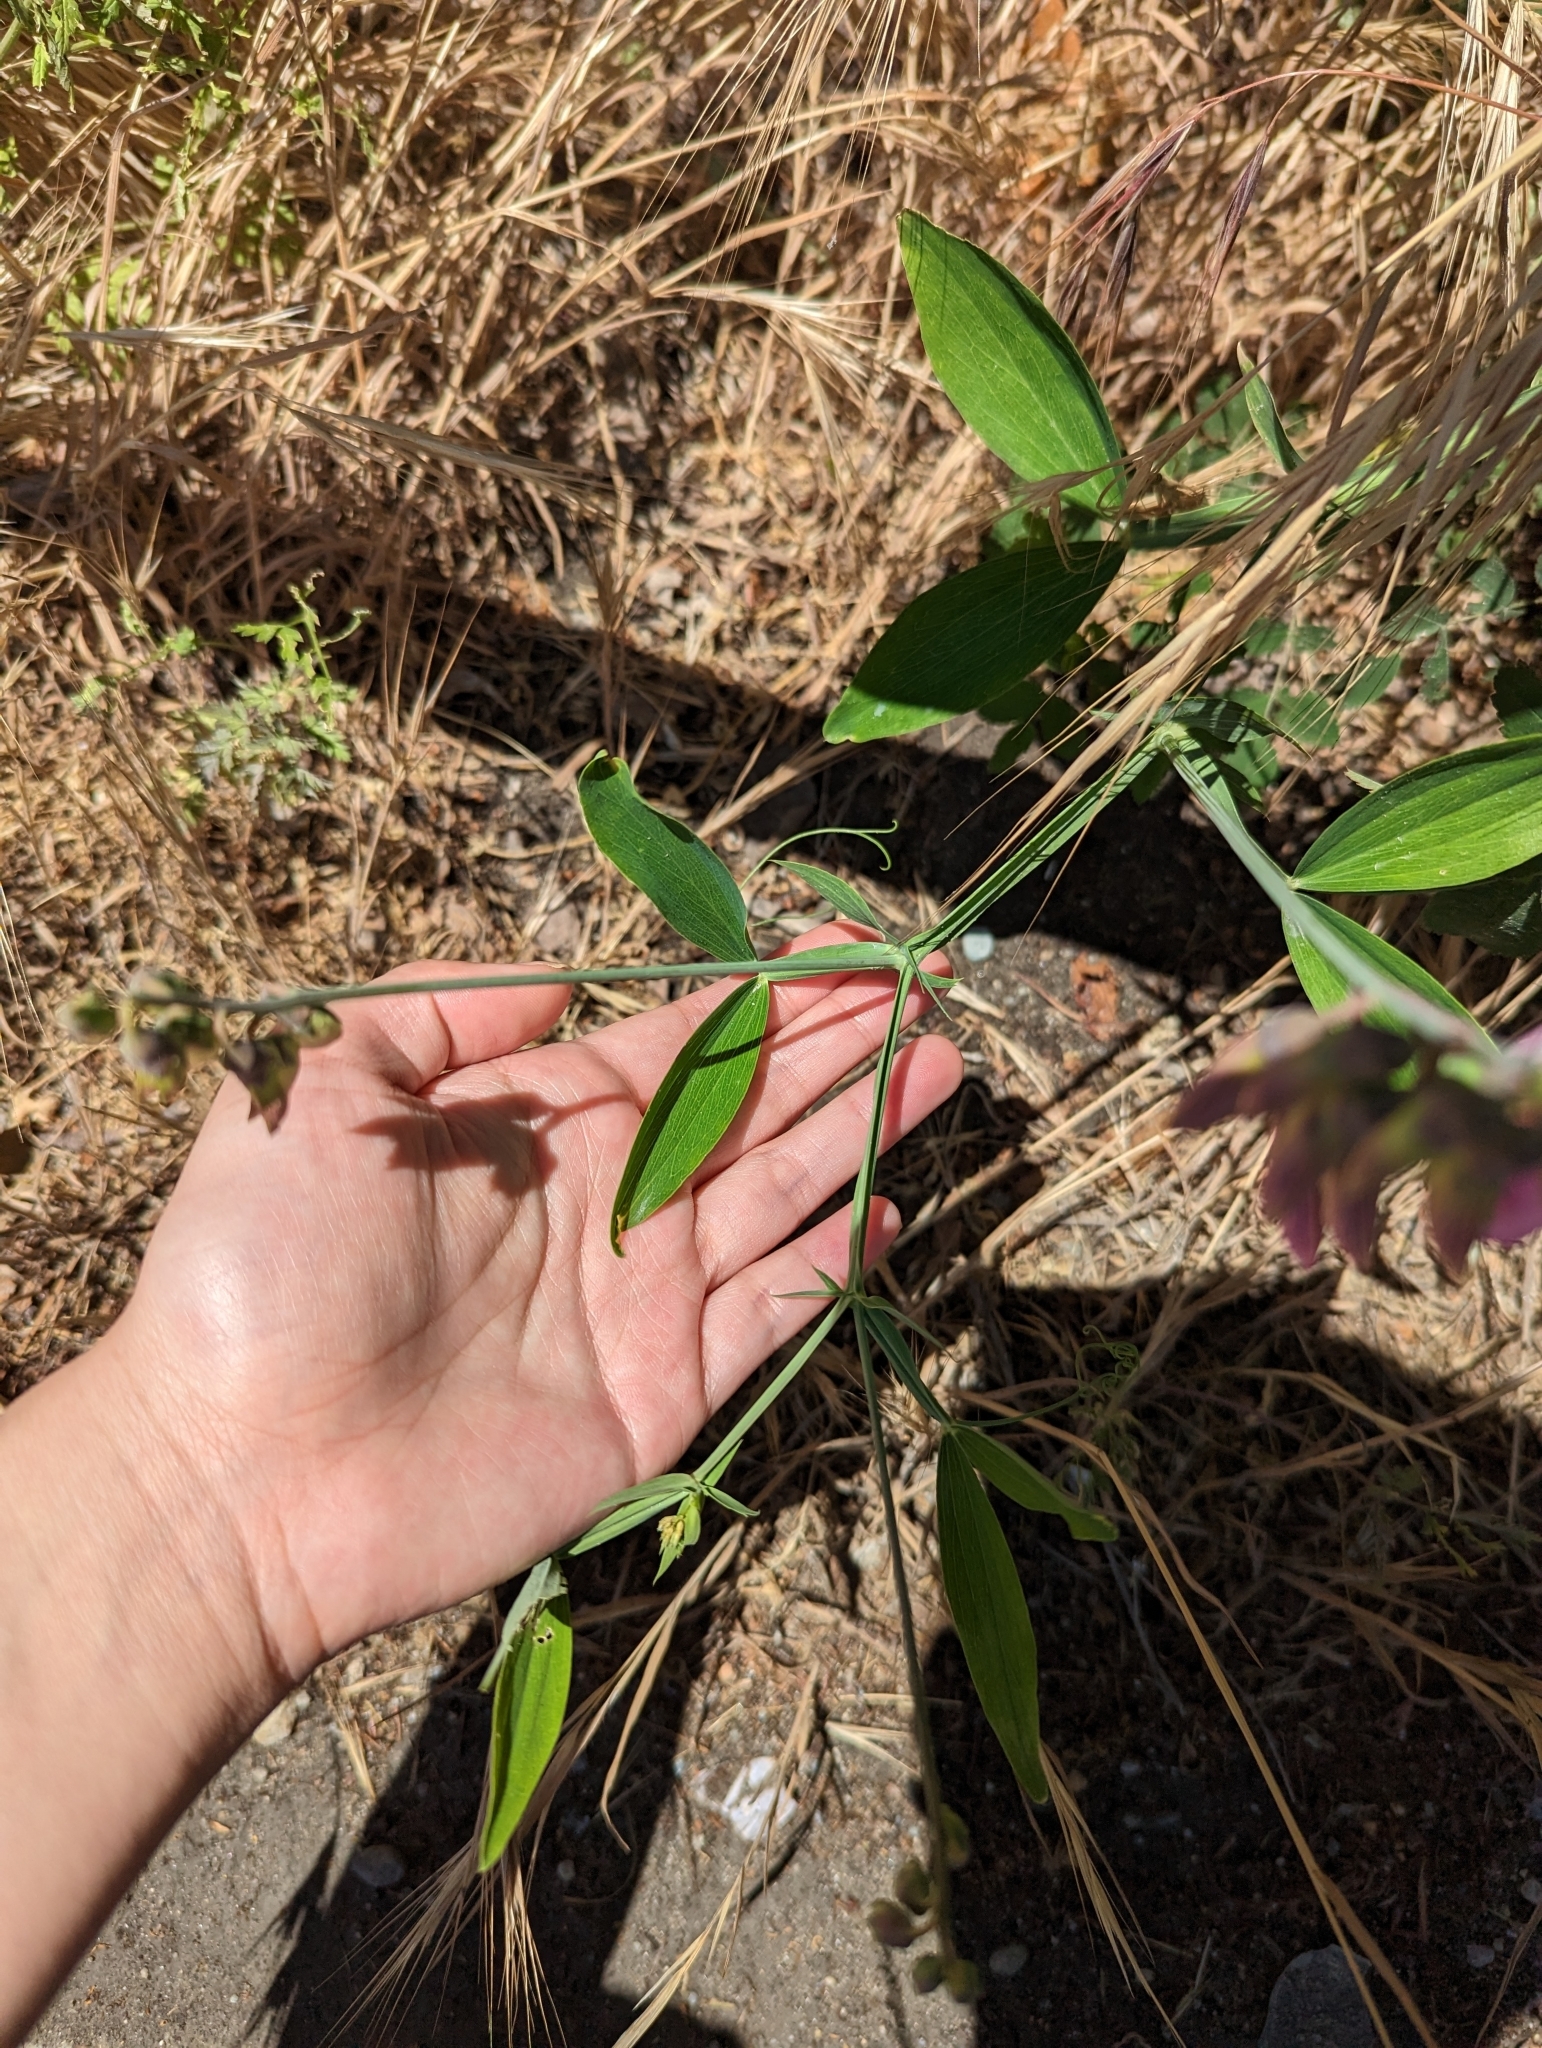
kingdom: Plantae
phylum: Tracheophyta
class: Magnoliopsida
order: Fabales
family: Fabaceae
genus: Lathyrus
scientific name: Lathyrus latifolius
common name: Perennial pea
